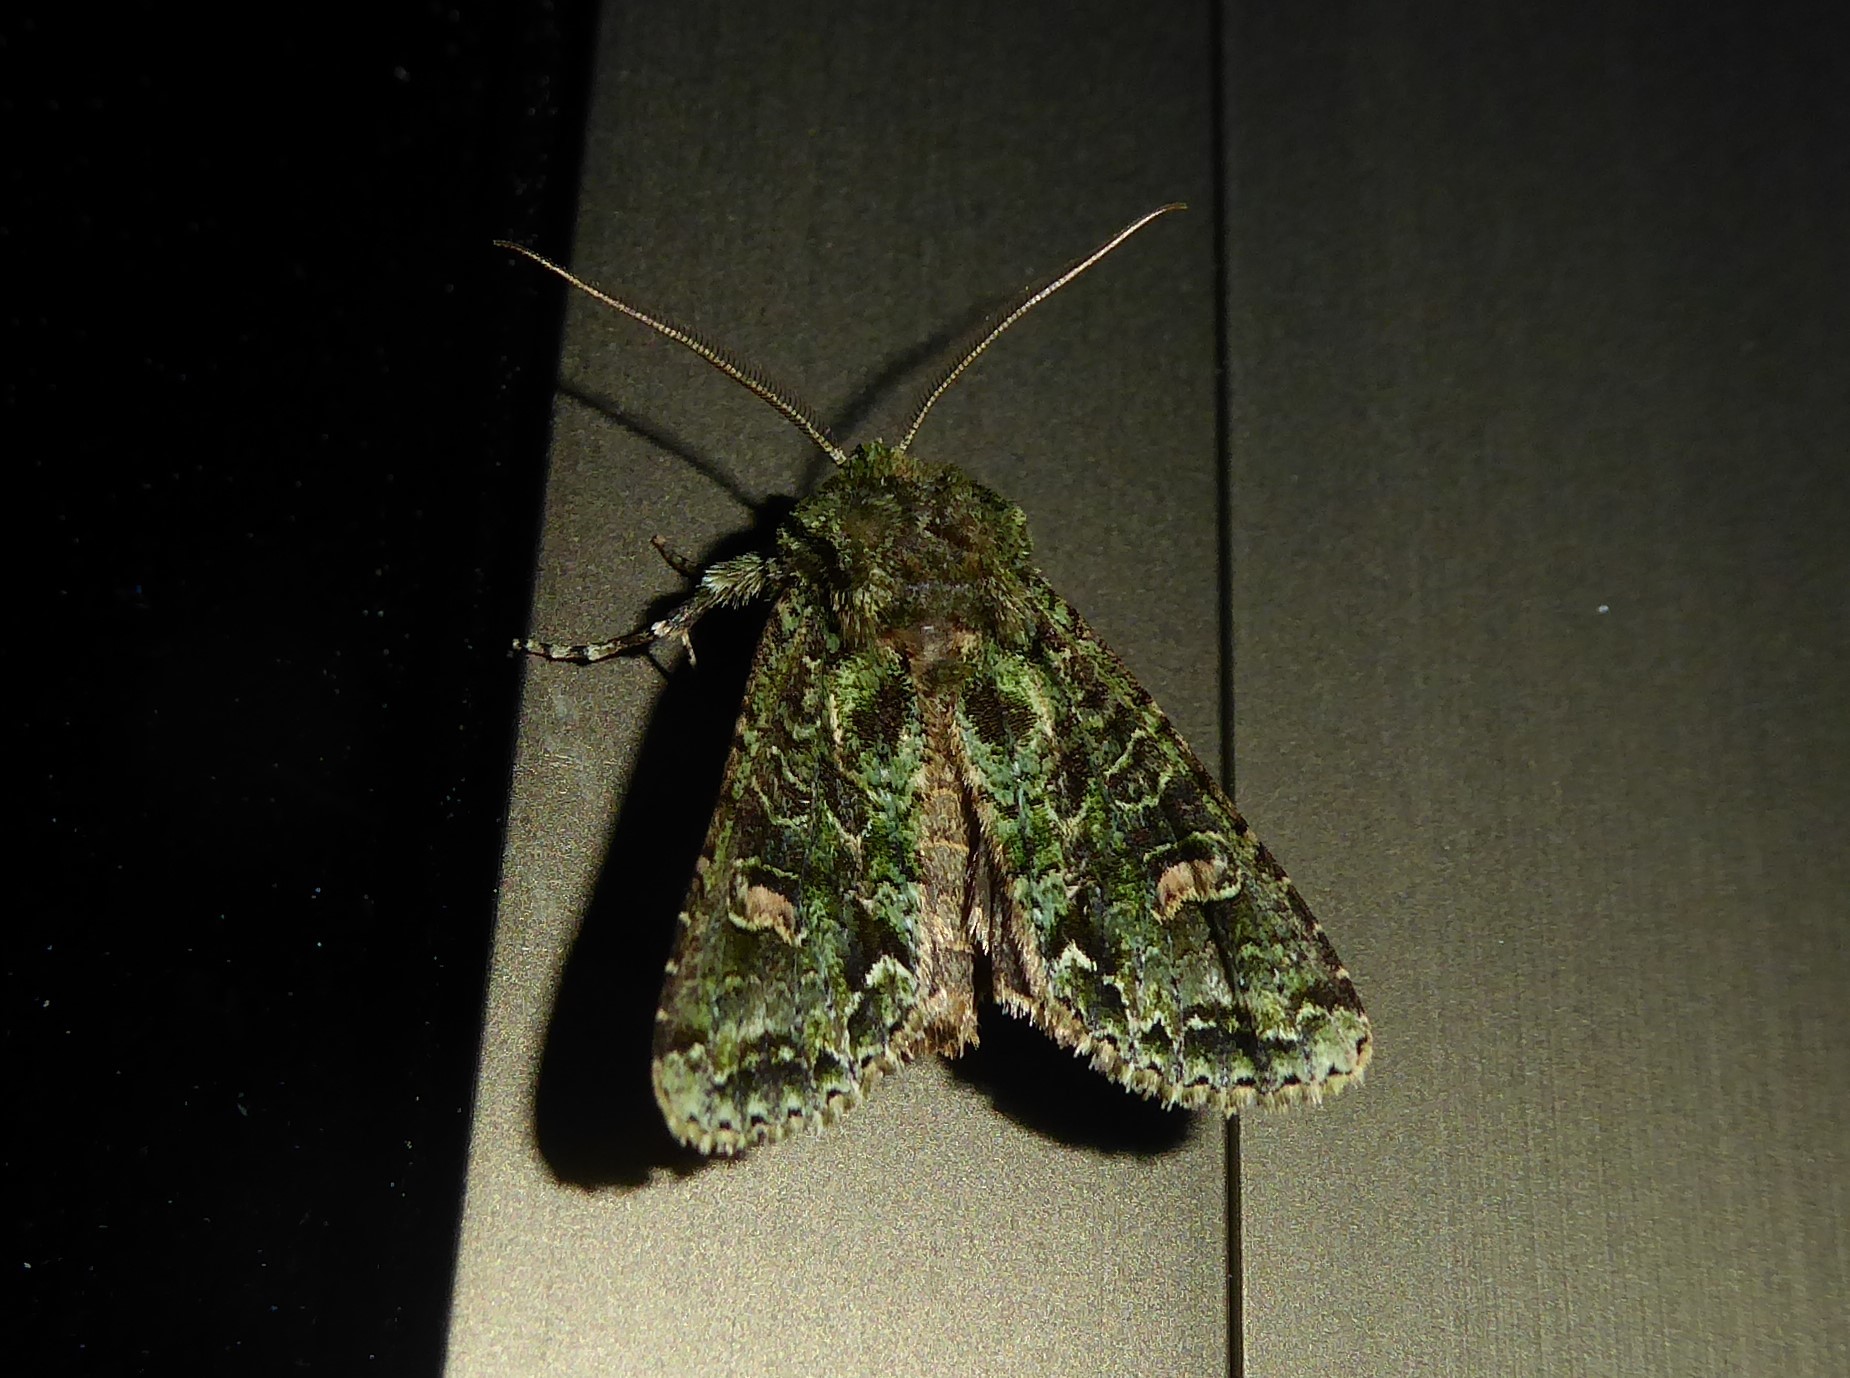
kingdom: Animalia
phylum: Arthropoda
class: Insecta
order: Lepidoptera
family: Noctuidae
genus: Ichneutica
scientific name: Ichneutica
